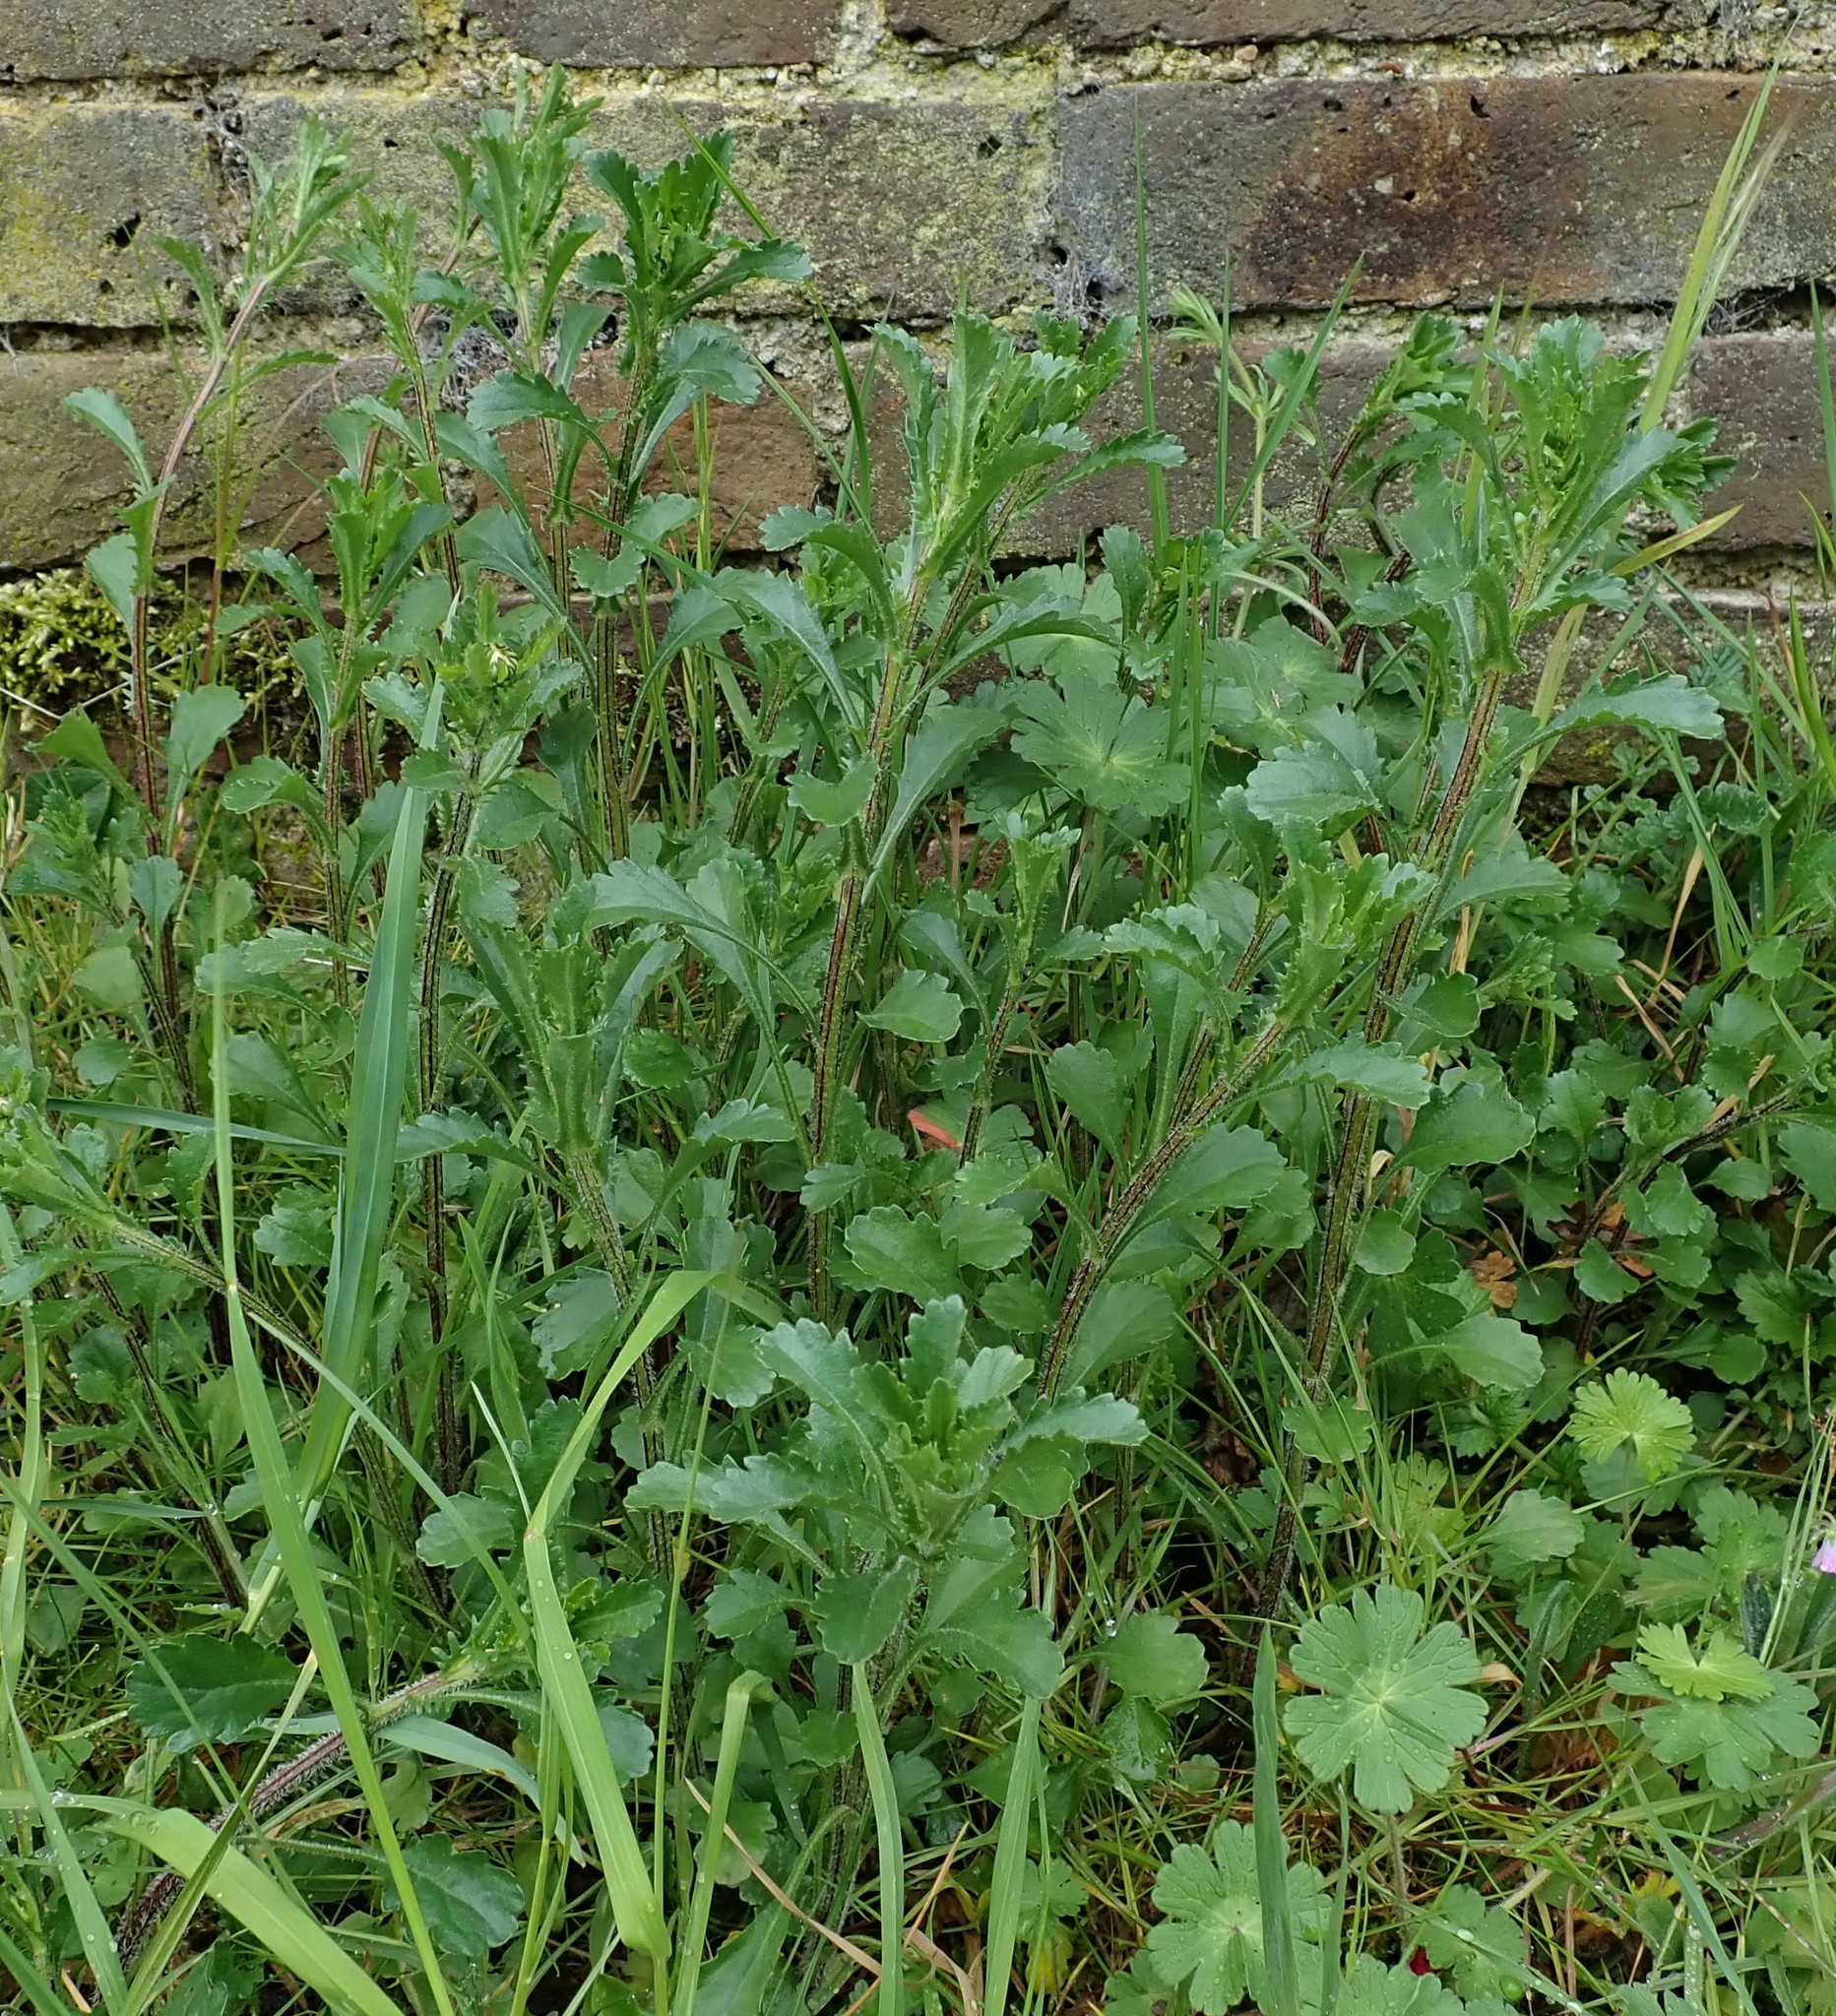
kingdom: Plantae
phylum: Tracheophyta
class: Magnoliopsida
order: Asterales
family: Asteraceae
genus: Leucanthemum
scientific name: Leucanthemum vulgare
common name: Oxeye daisy
